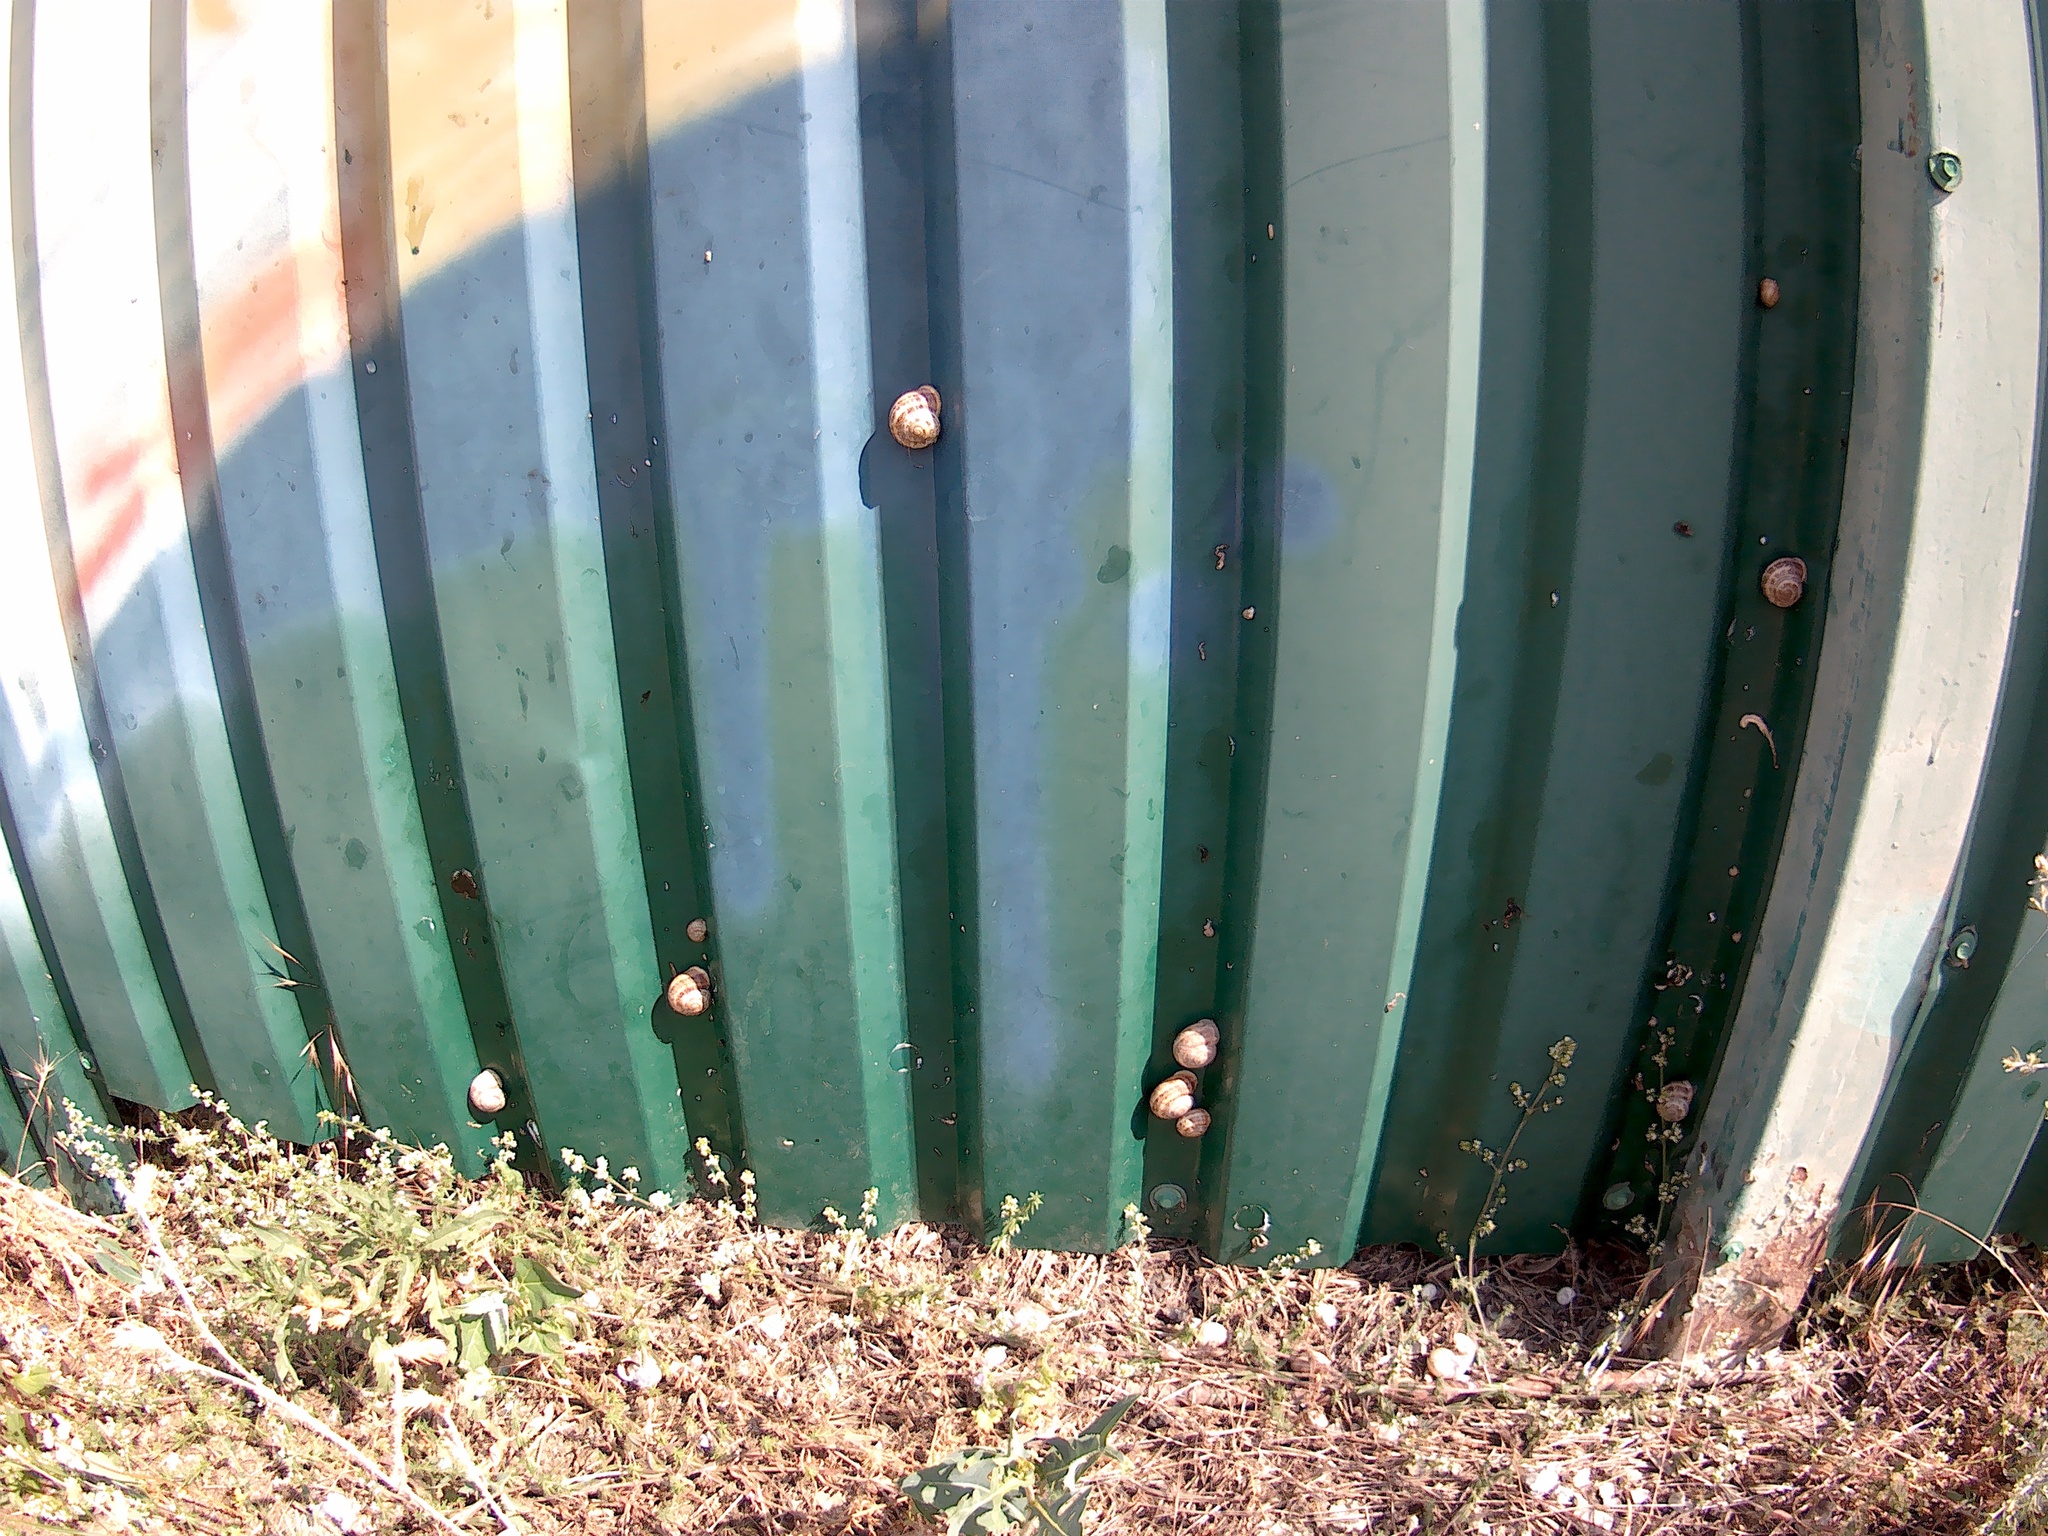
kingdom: Animalia
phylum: Mollusca
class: Gastropoda
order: Stylommatophora
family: Helicidae
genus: Eobania
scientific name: Eobania vermiculata
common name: Chocolateband snail
